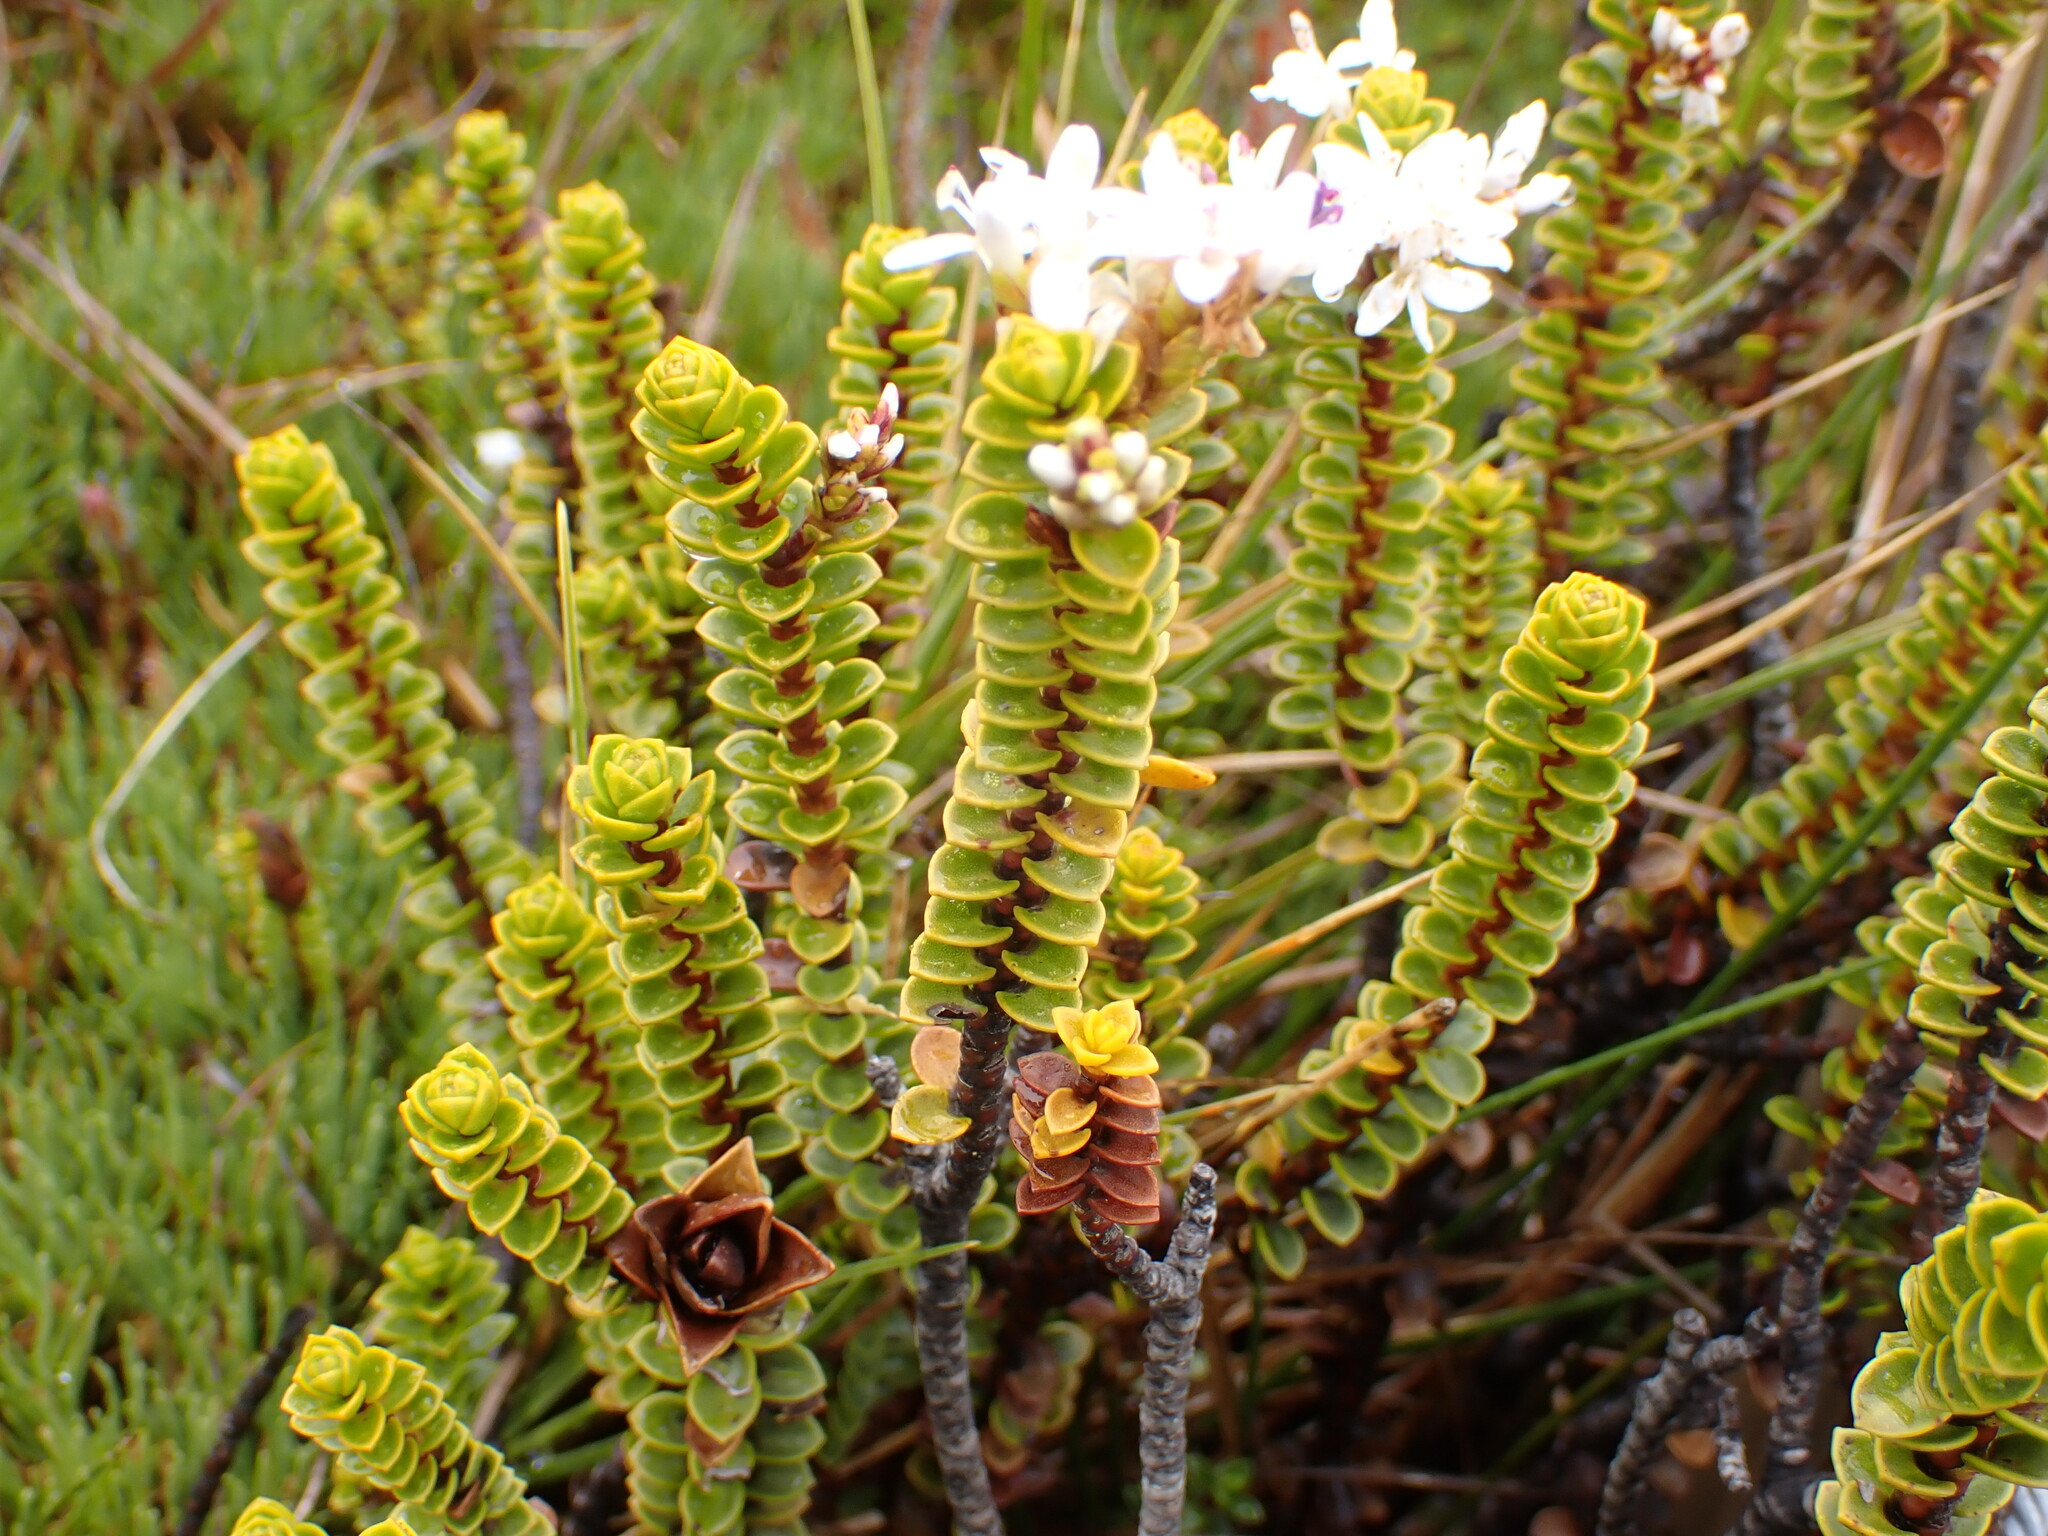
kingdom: Plantae
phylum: Tracheophyta
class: Magnoliopsida
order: Lamiales
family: Plantaginaceae
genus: Veronica
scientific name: Veronica pauciramosa
